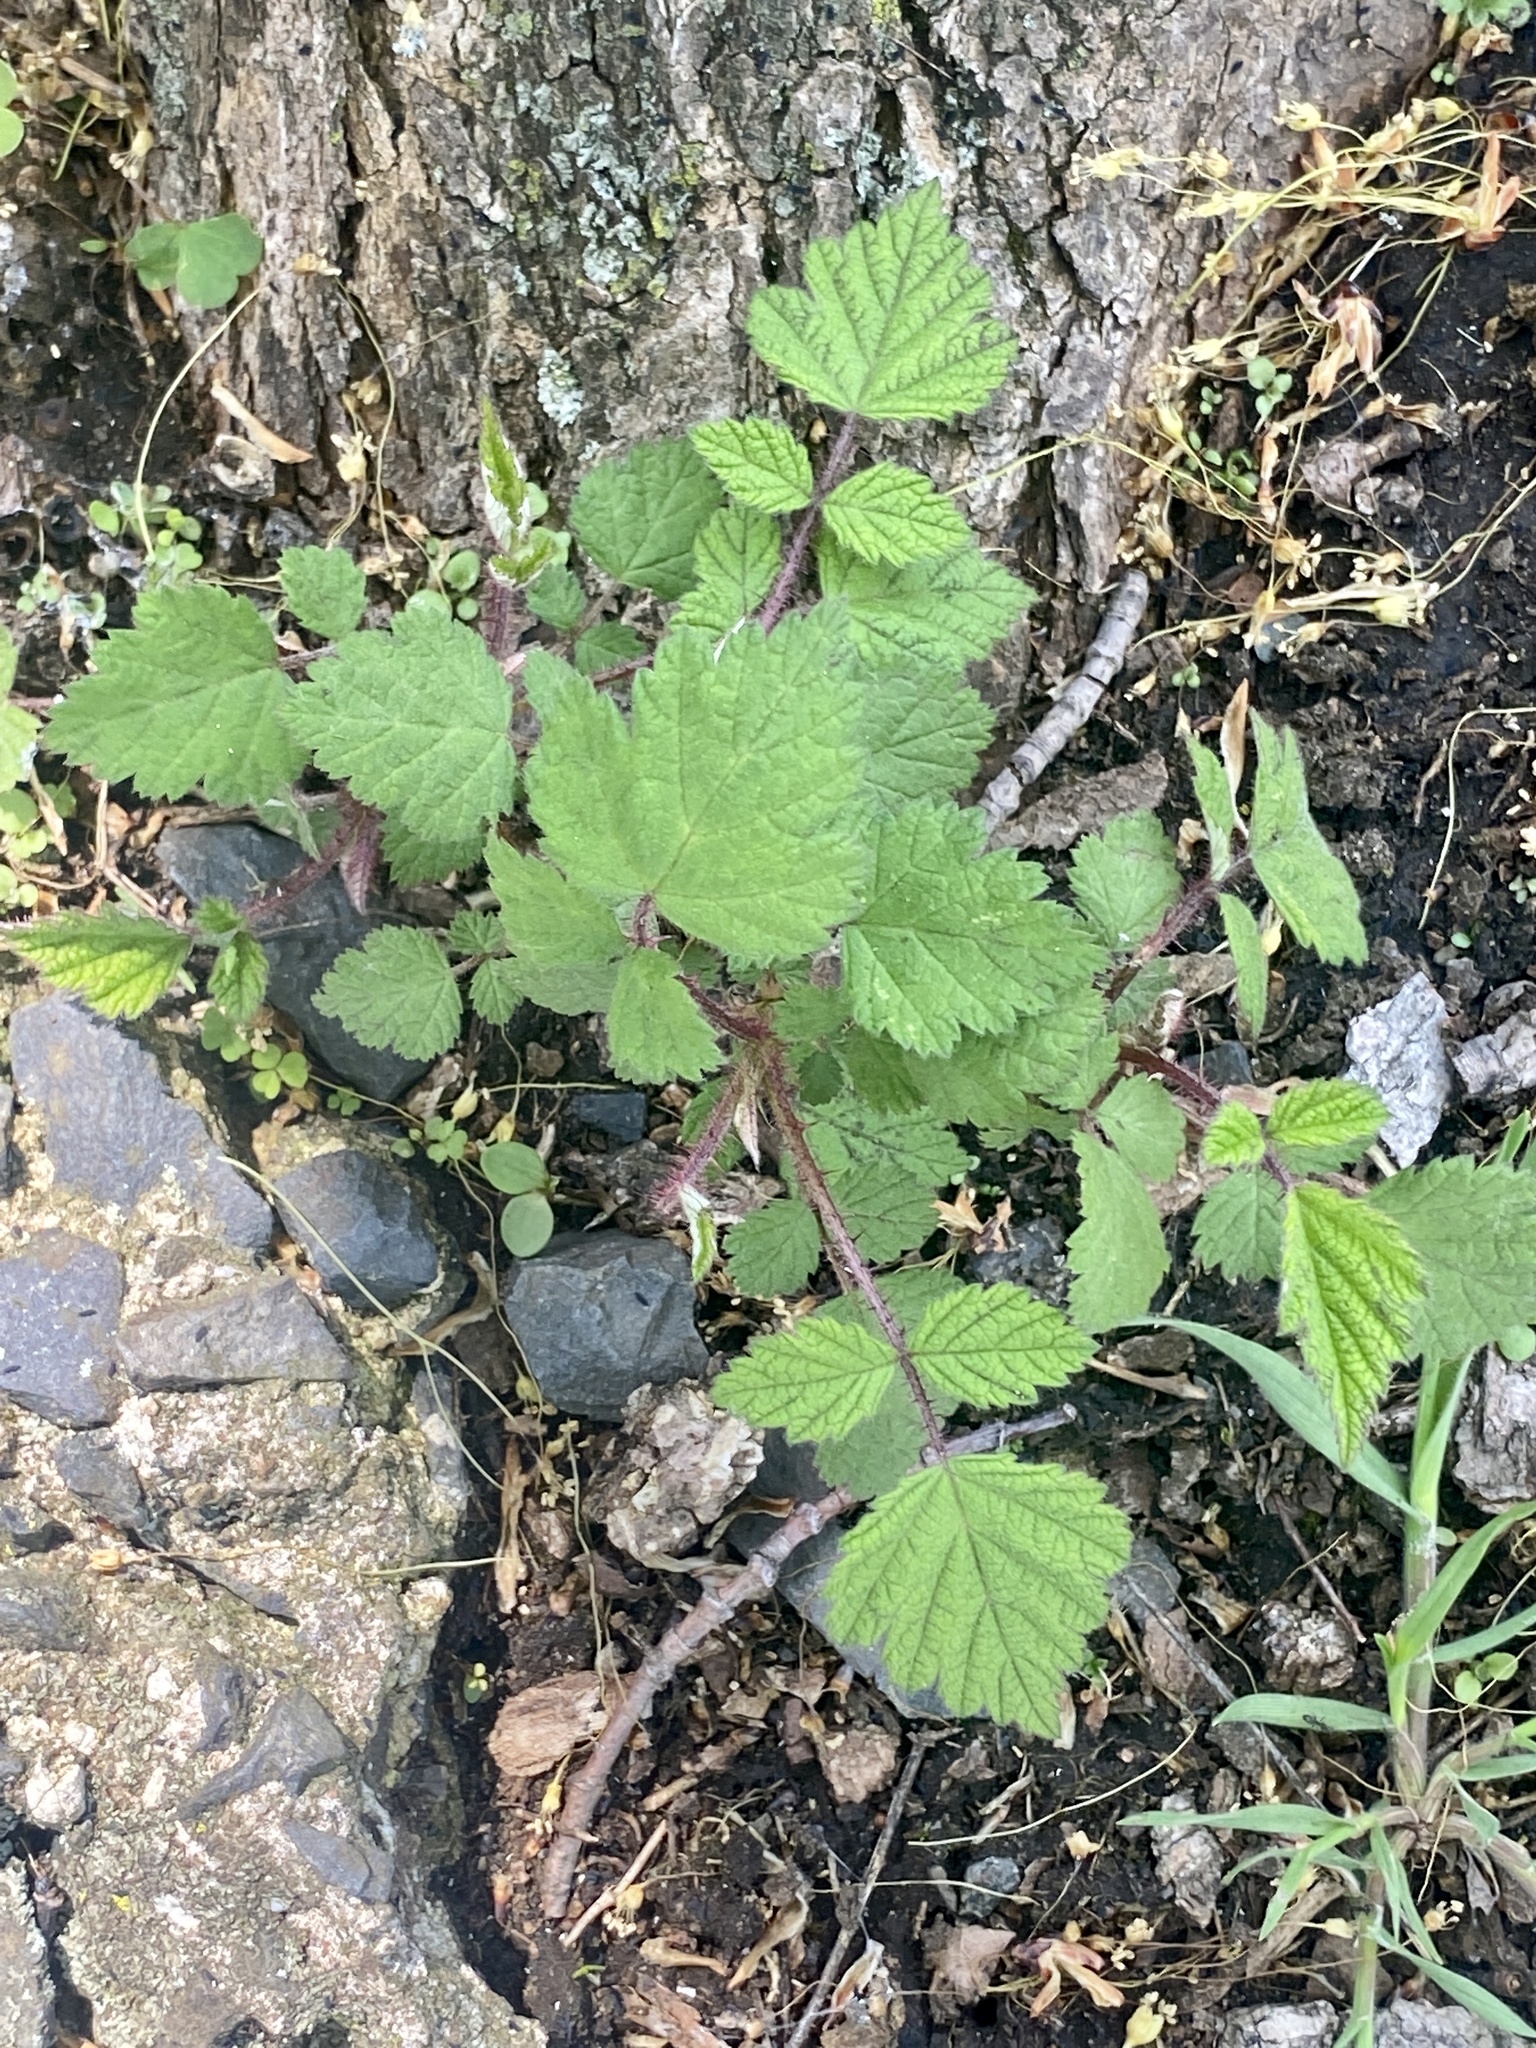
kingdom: Plantae
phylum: Tracheophyta
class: Magnoliopsida
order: Rosales
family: Rosaceae
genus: Rubus
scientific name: Rubus phoenicolasius
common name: Japanese wineberry
